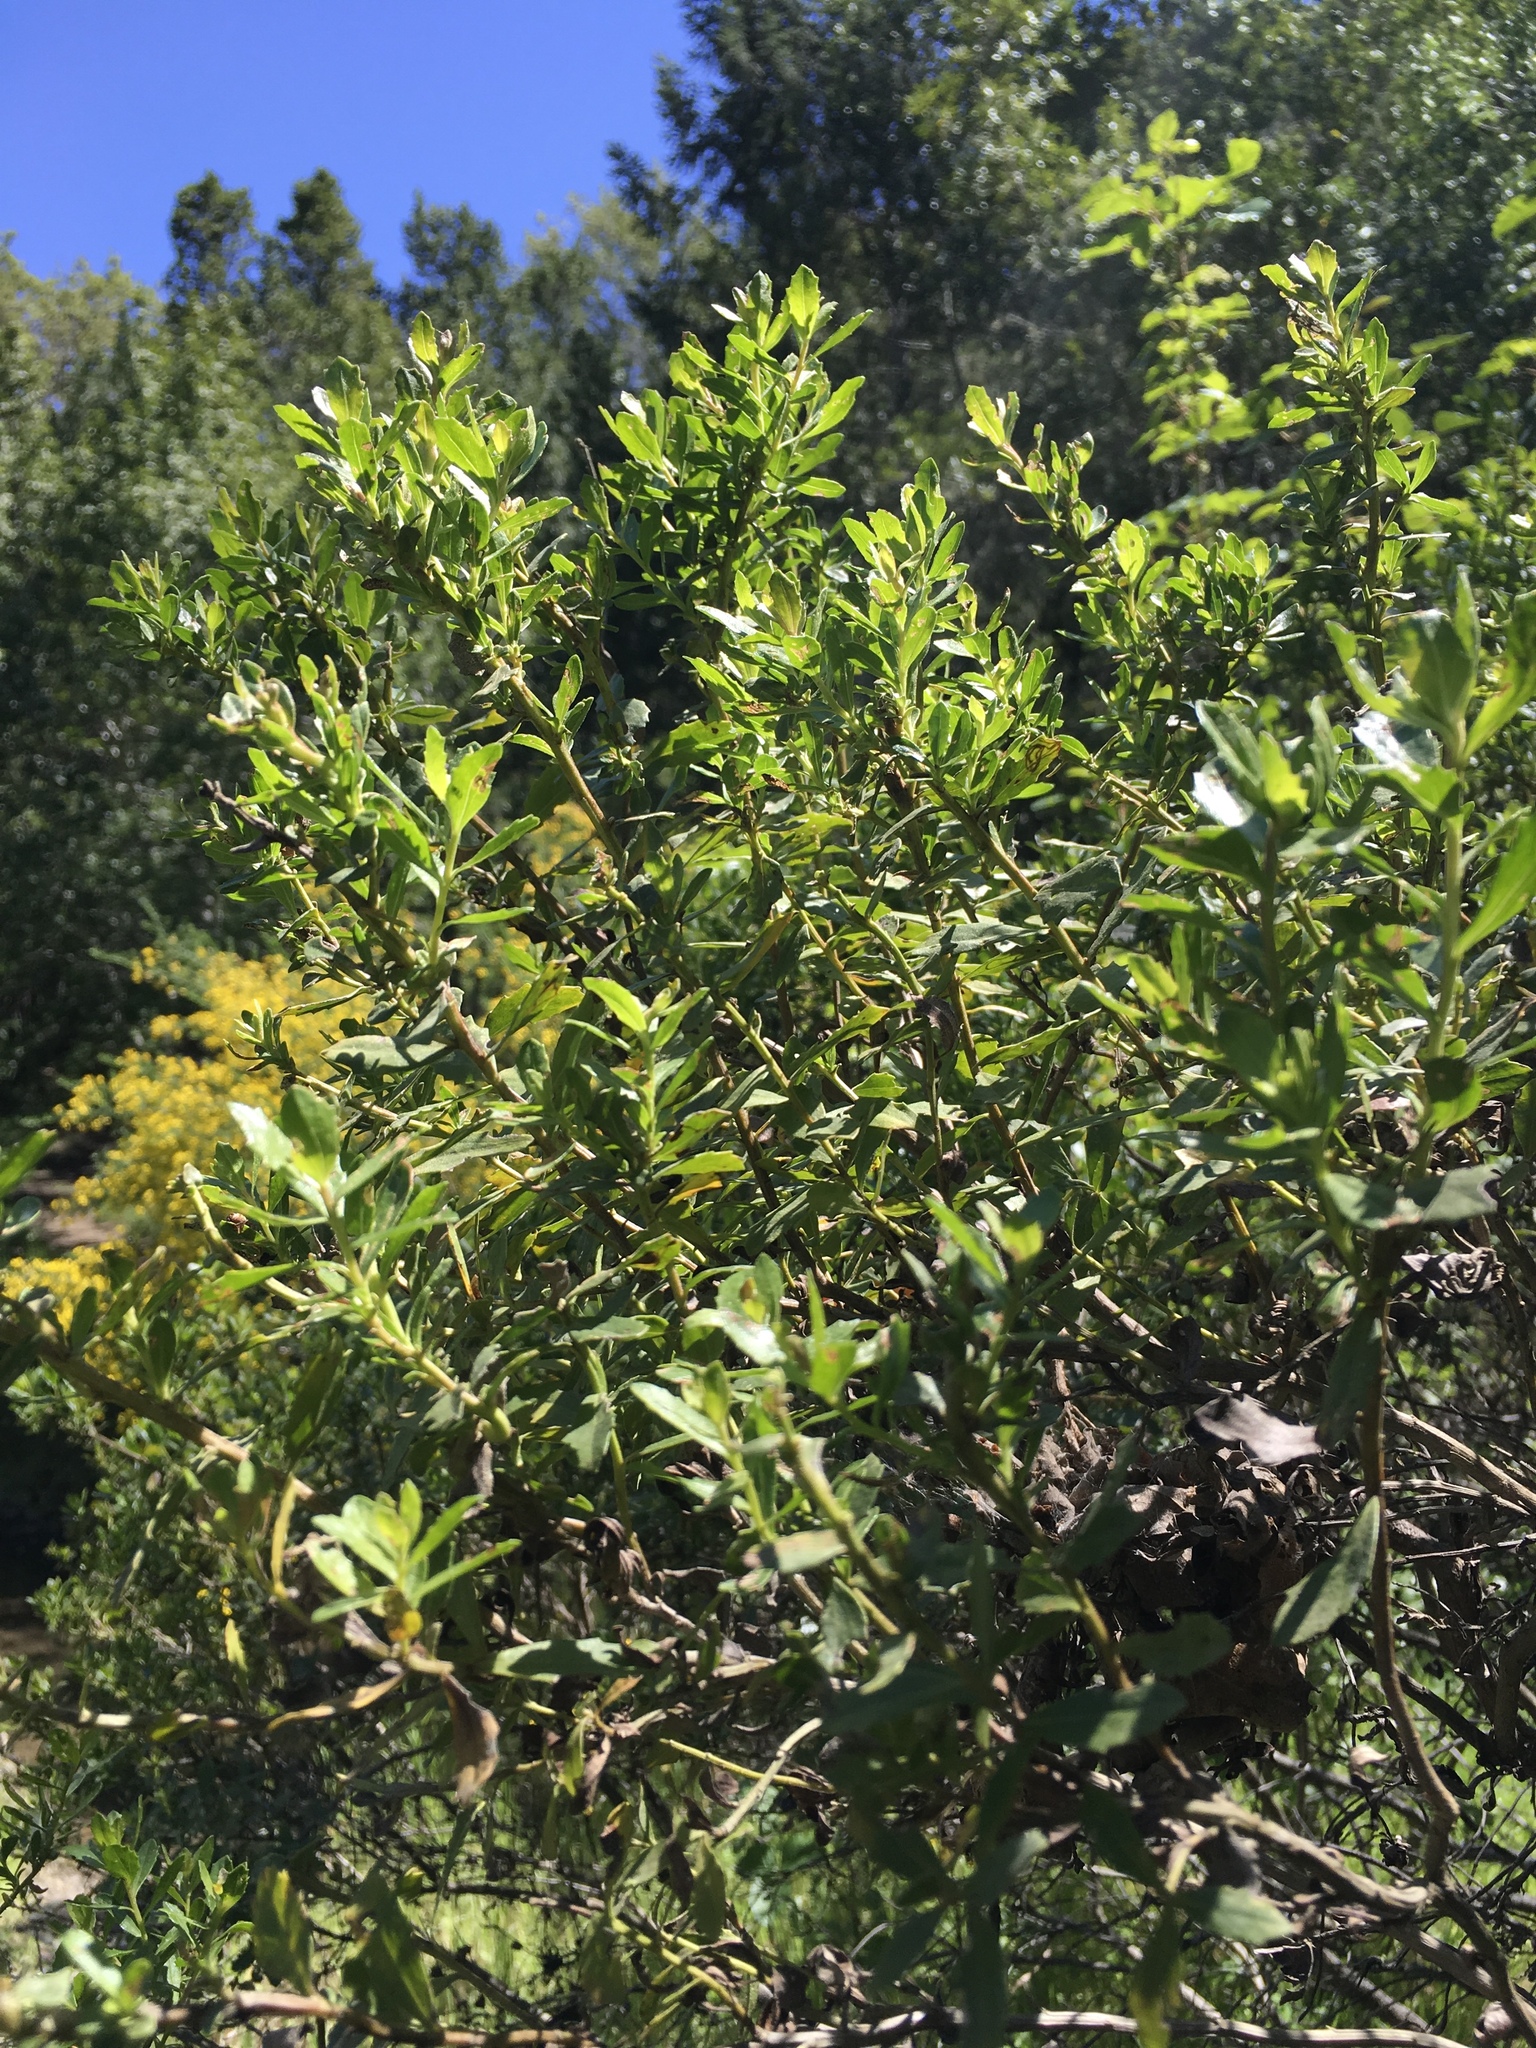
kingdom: Plantae
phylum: Tracheophyta
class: Magnoliopsida
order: Asterales
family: Asteraceae
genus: Baccharis
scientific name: Baccharis pilularis
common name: Coyotebrush
